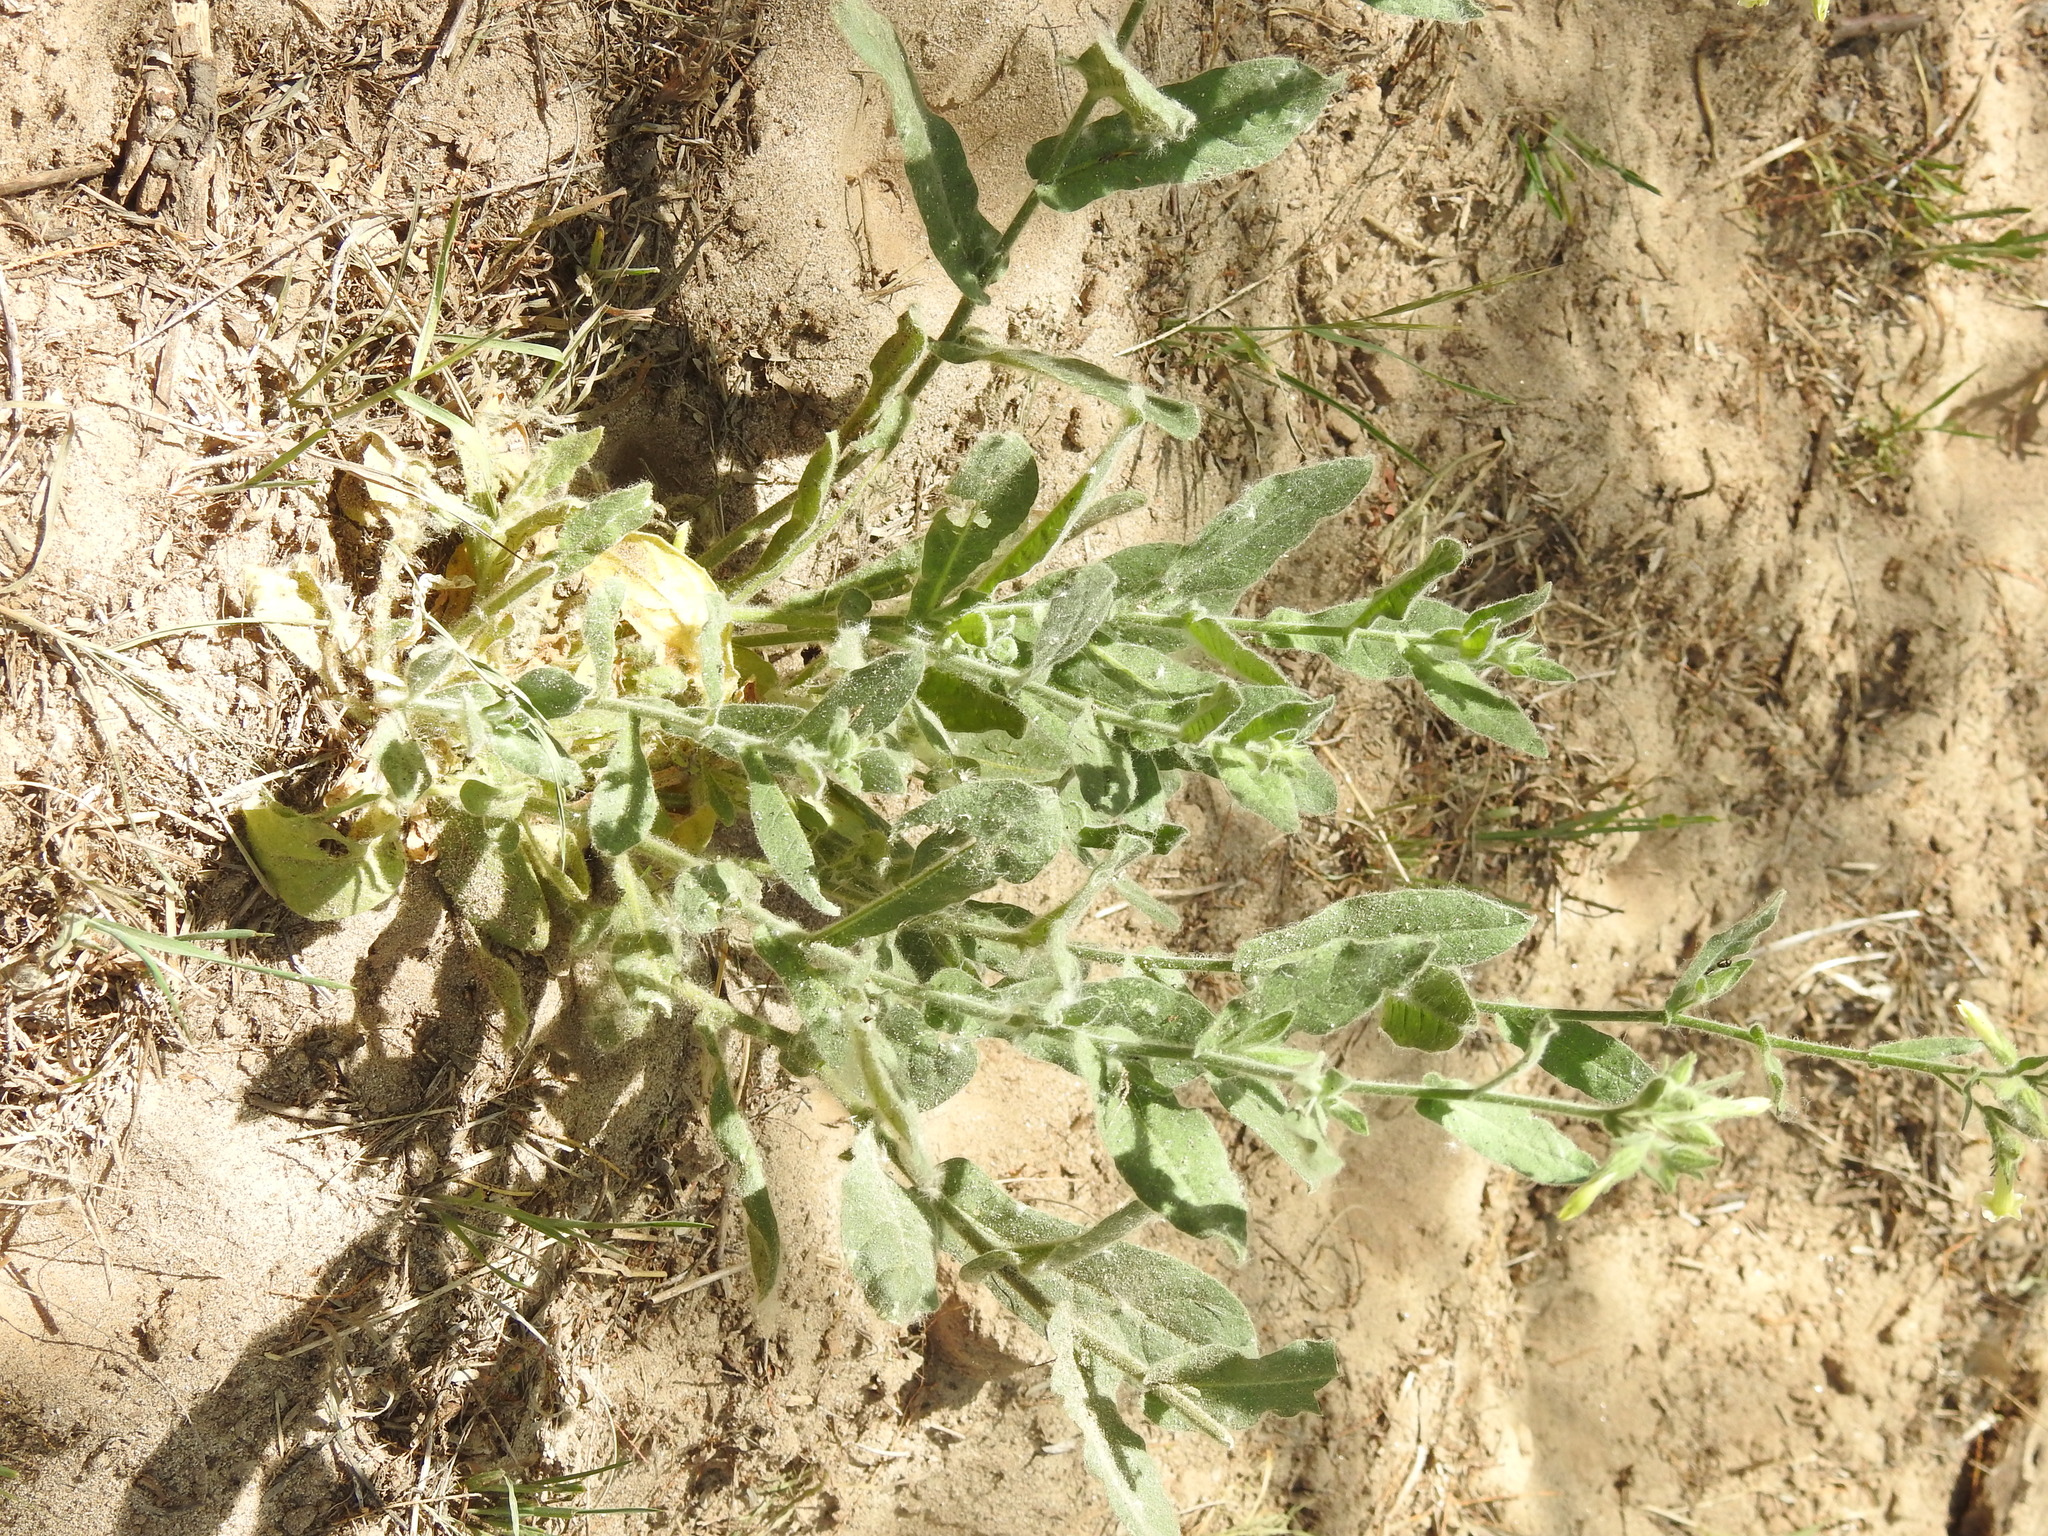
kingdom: Plantae
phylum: Tracheophyta
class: Magnoliopsida
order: Solanales
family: Solanaceae
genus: Nicotiana
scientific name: Nicotiana obtusifolia
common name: Desert tobacco
